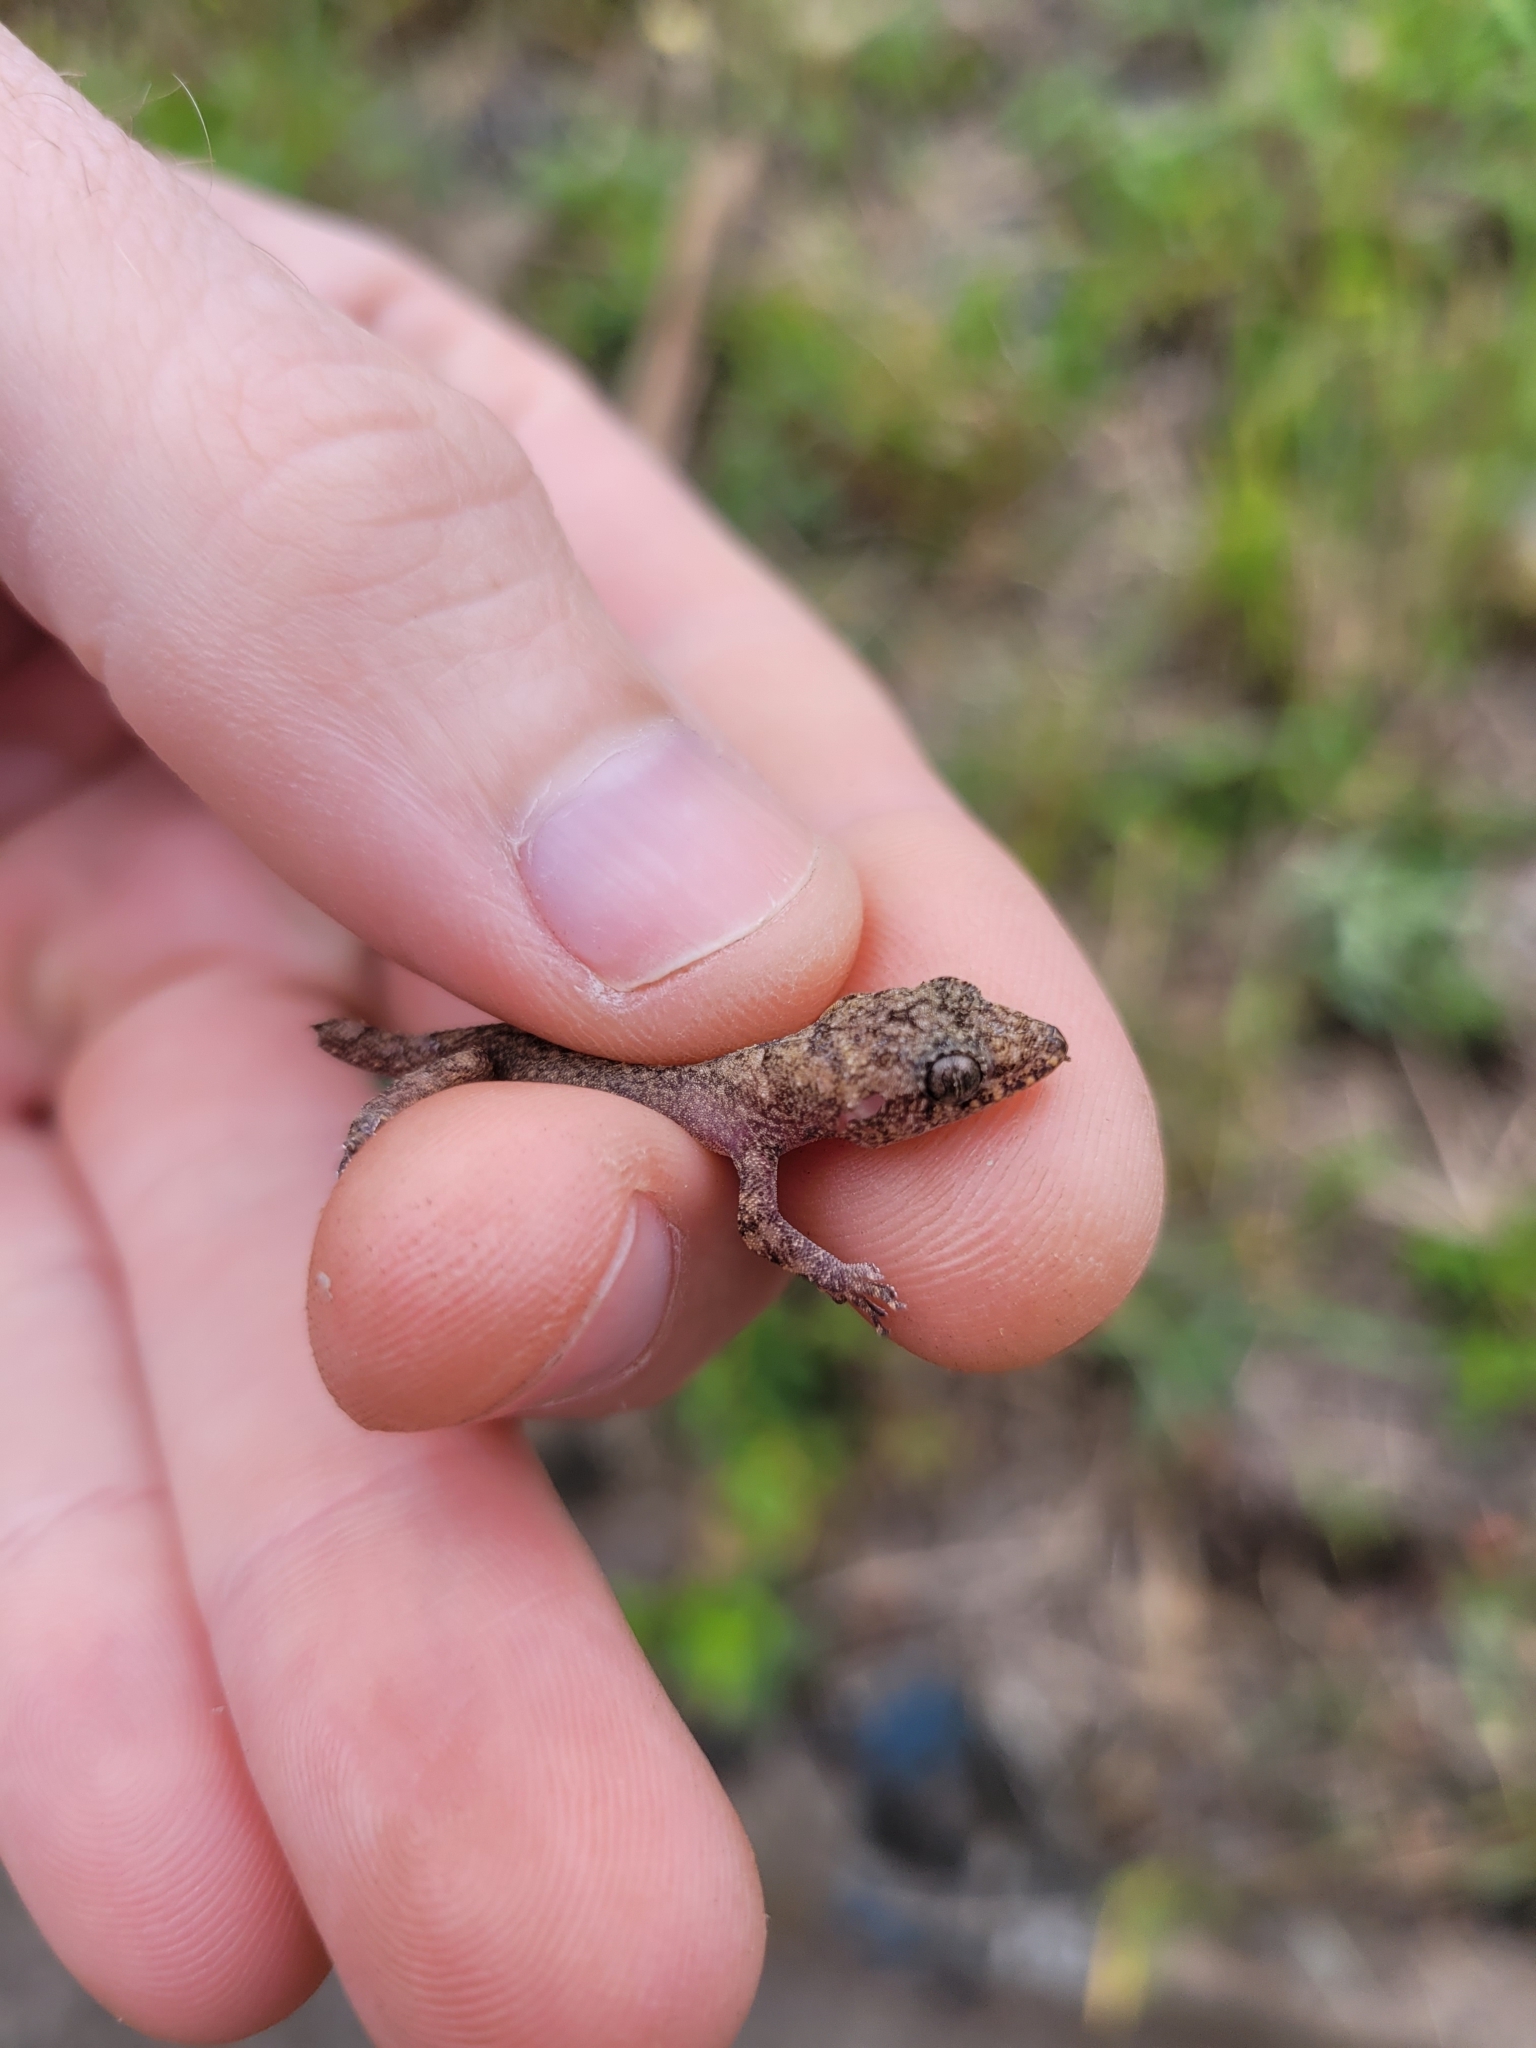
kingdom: Animalia
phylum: Chordata
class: Squamata
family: Gekkonidae
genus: Hemidactylus
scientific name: Hemidactylus mabouia
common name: House gecko
